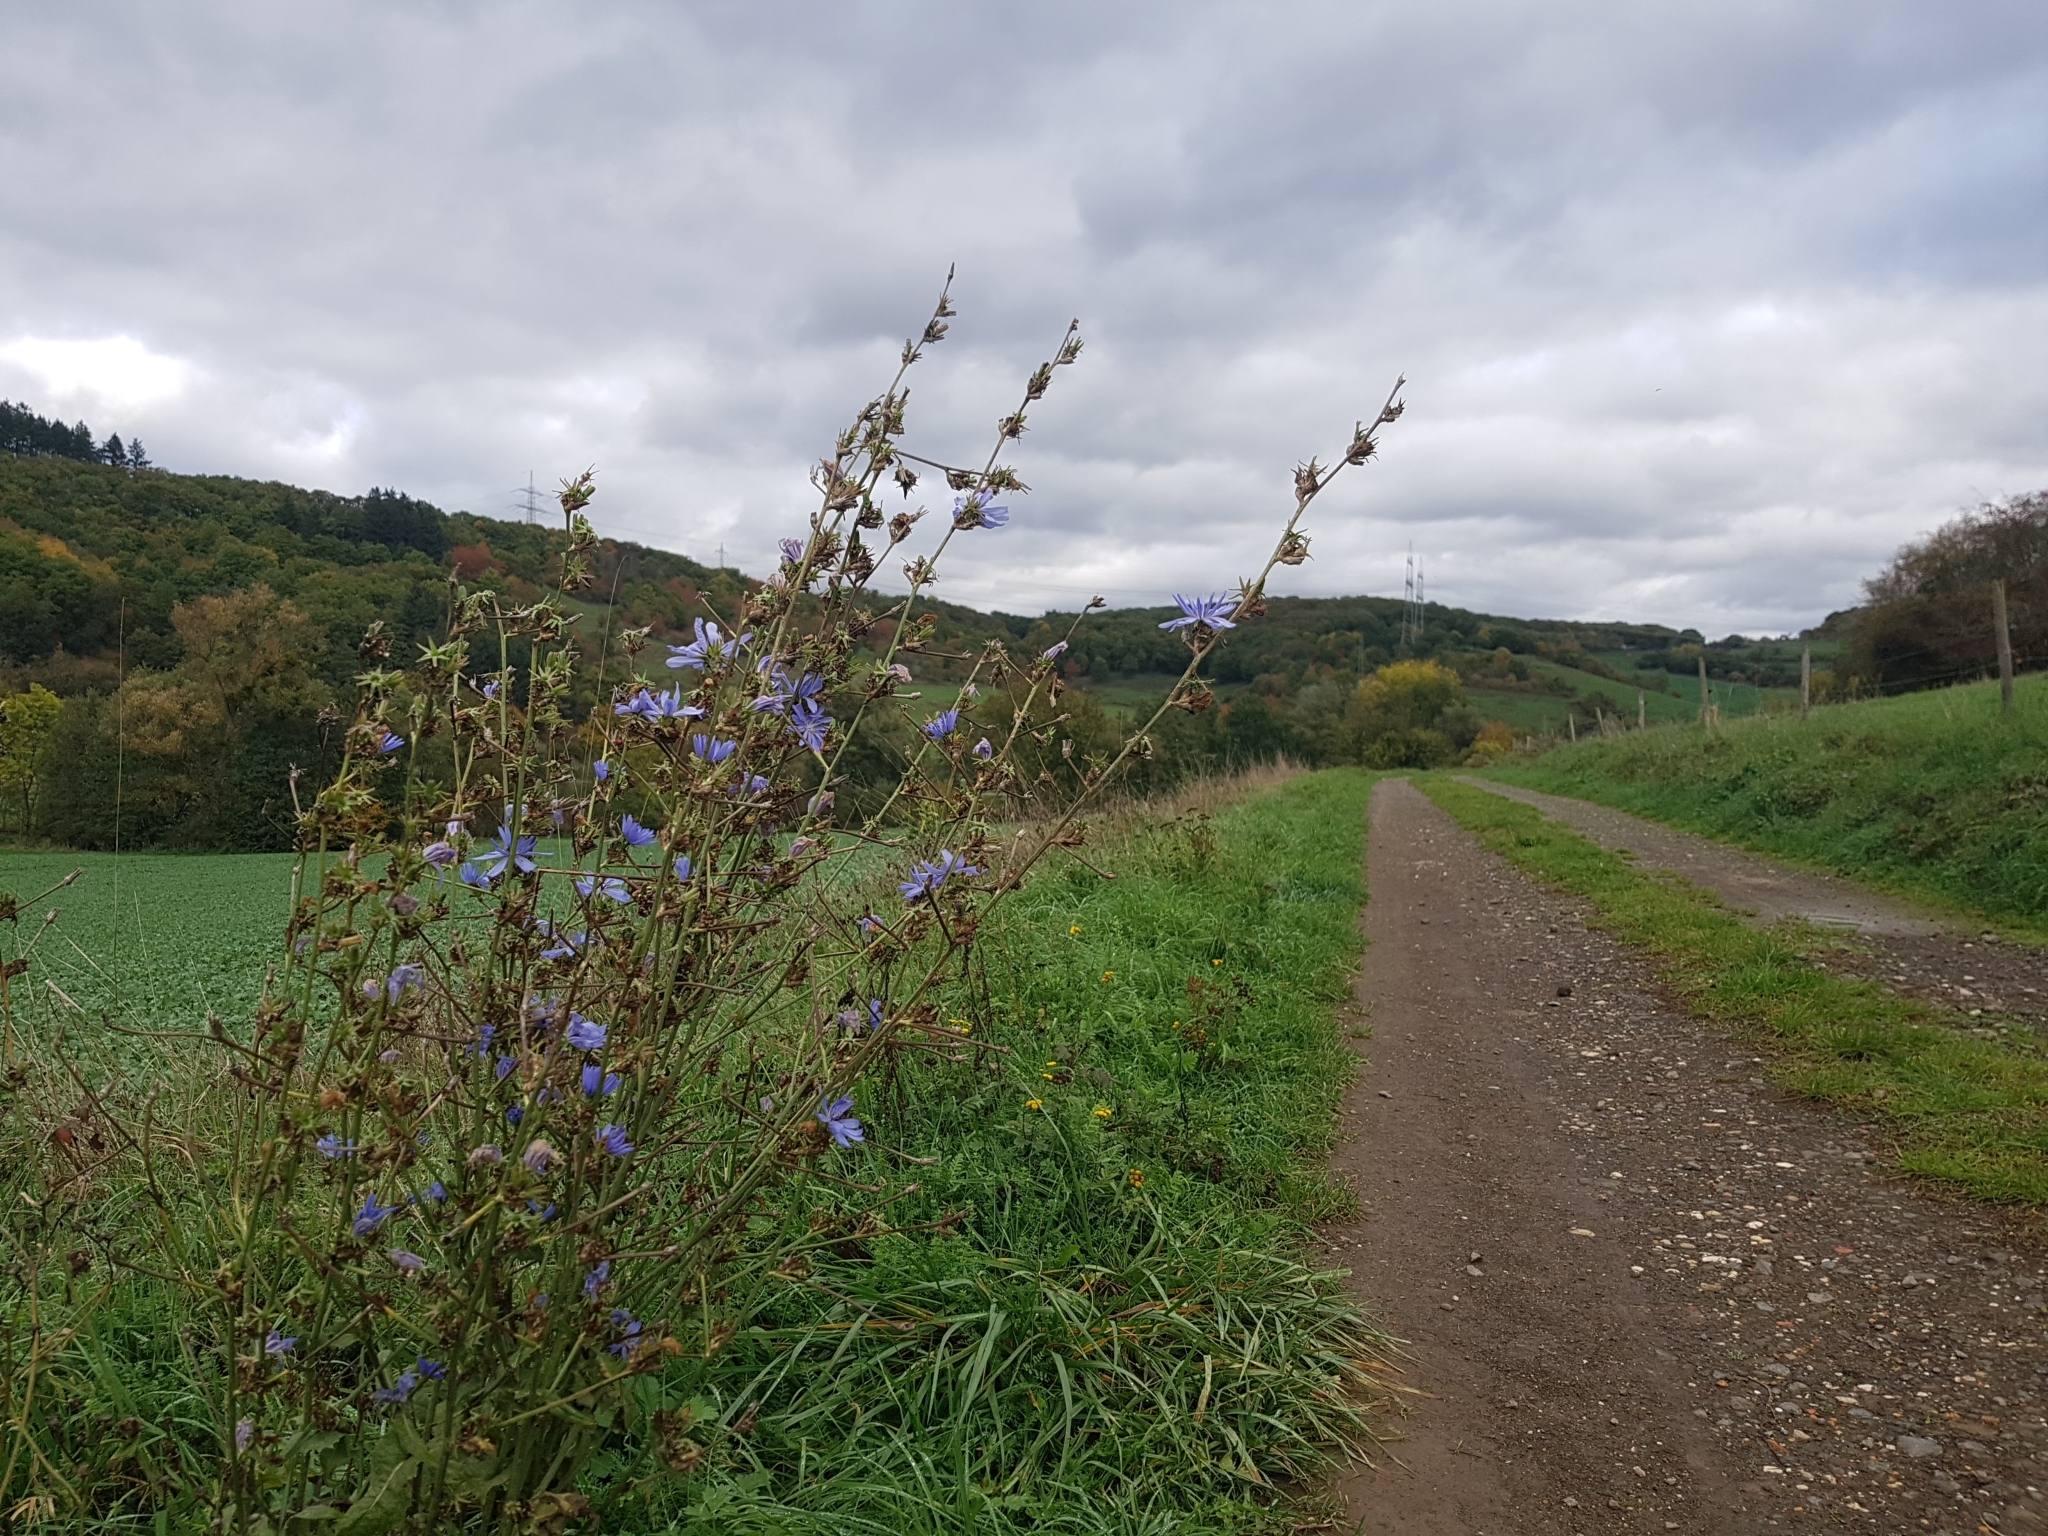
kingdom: Plantae
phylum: Tracheophyta
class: Magnoliopsida
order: Asterales
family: Asteraceae
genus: Cichorium
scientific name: Cichorium intybus
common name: Chicory
